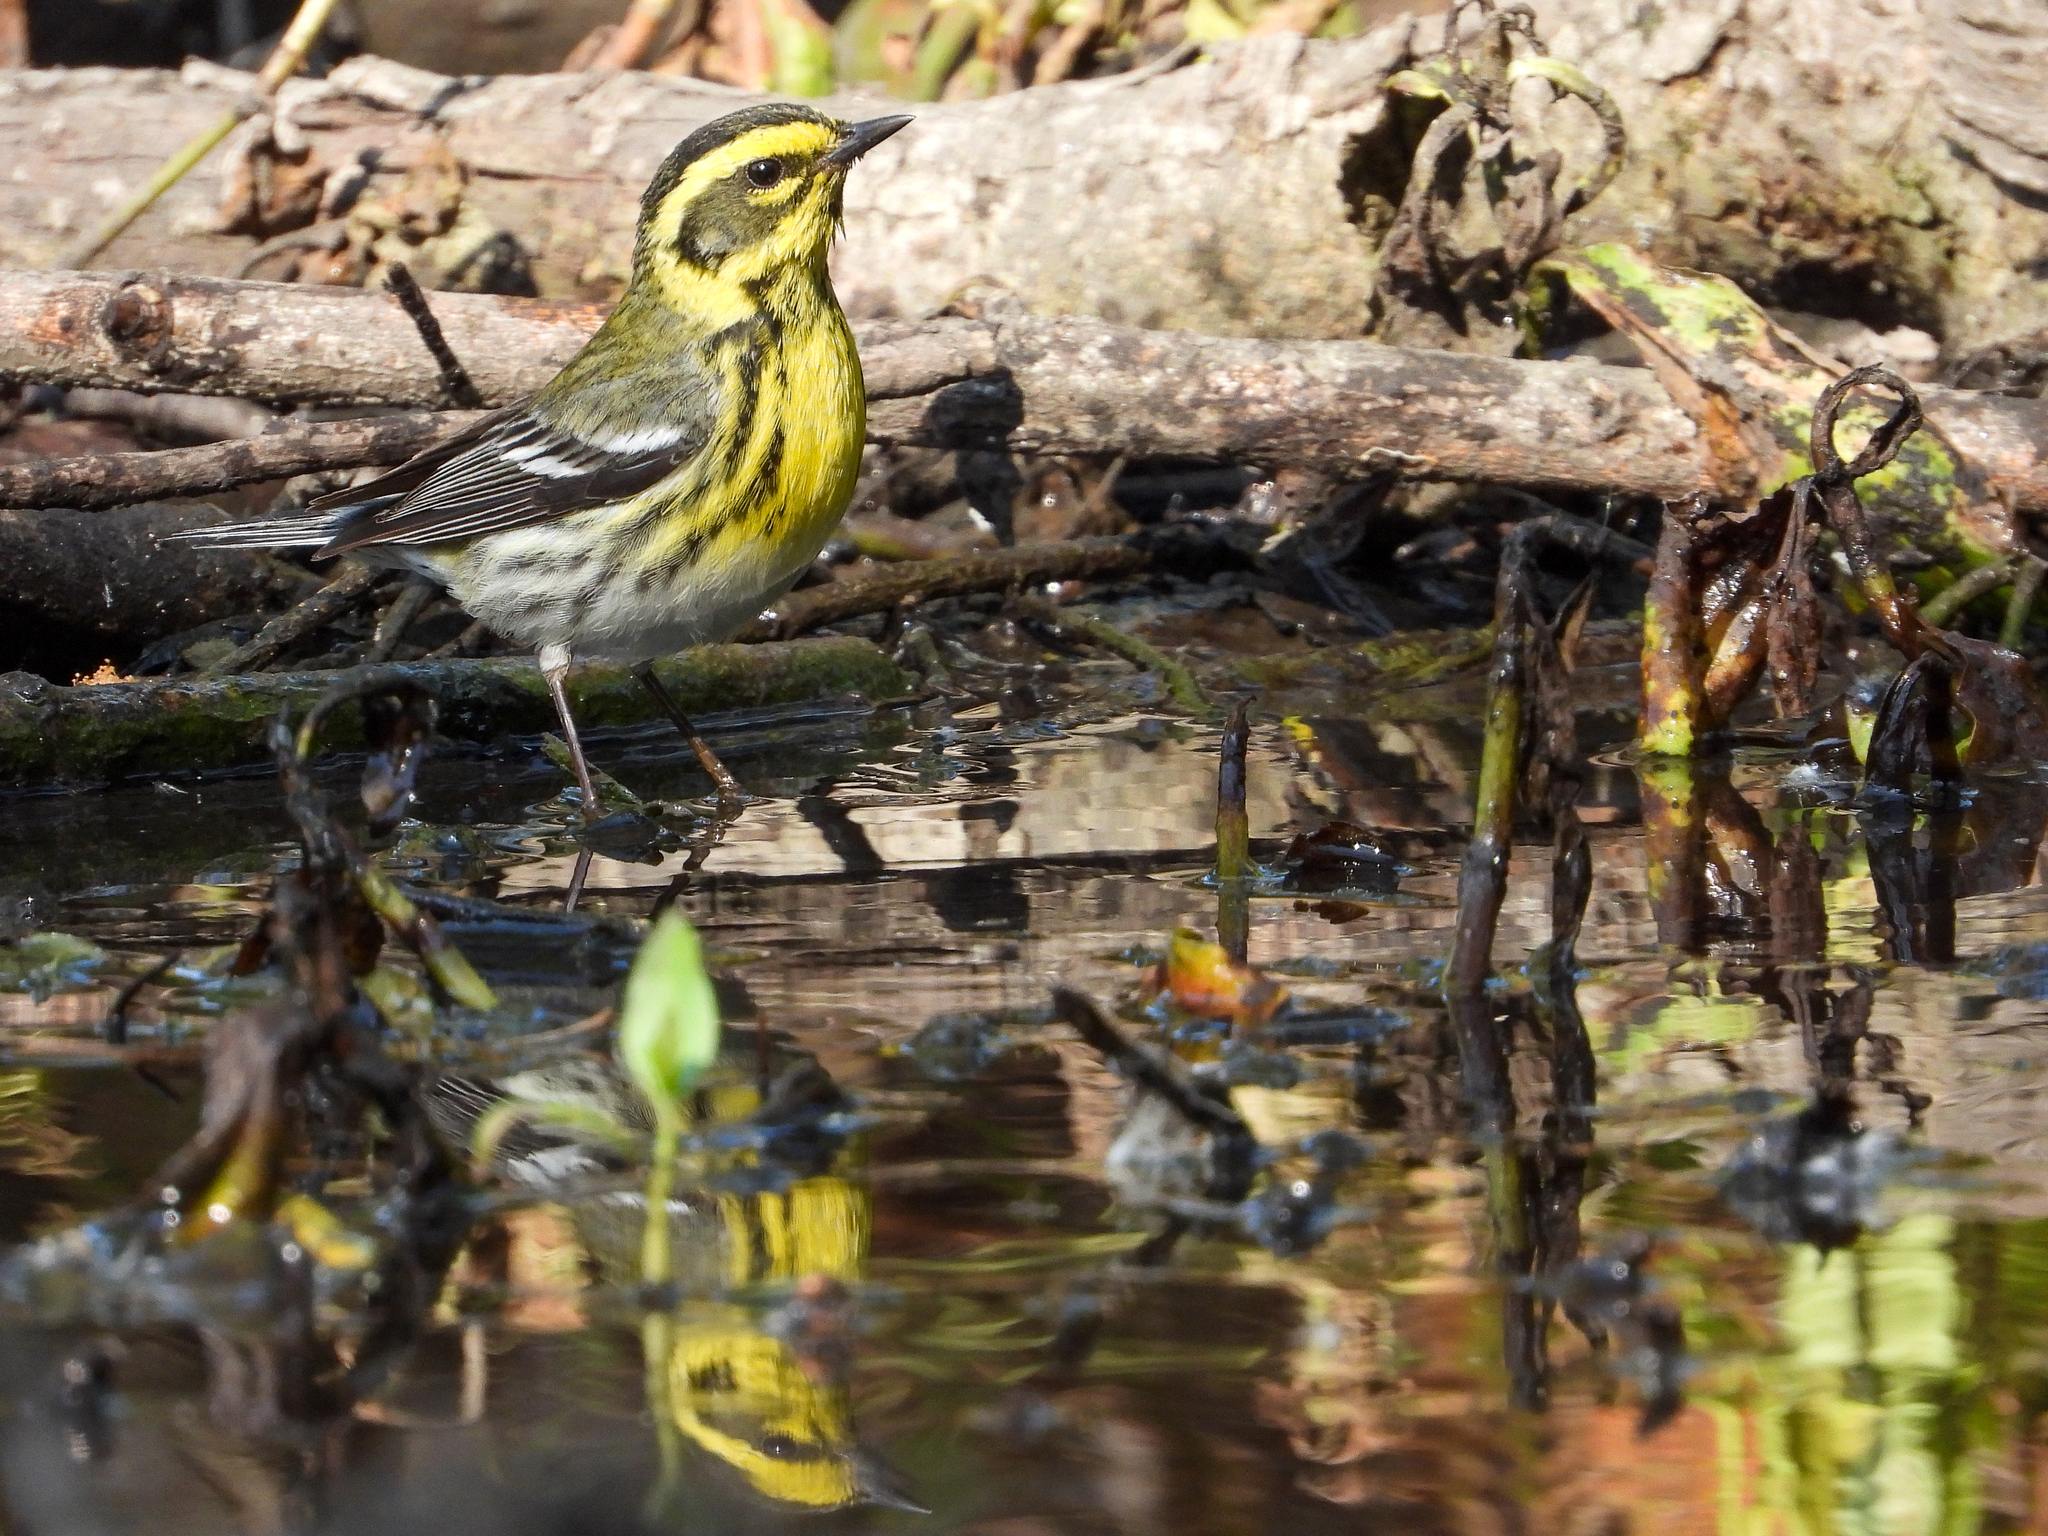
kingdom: Animalia
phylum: Chordata
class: Aves
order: Passeriformes
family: Parulidae
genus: Setophaga
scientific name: Setophaga townsendi
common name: Townsend's warbler
